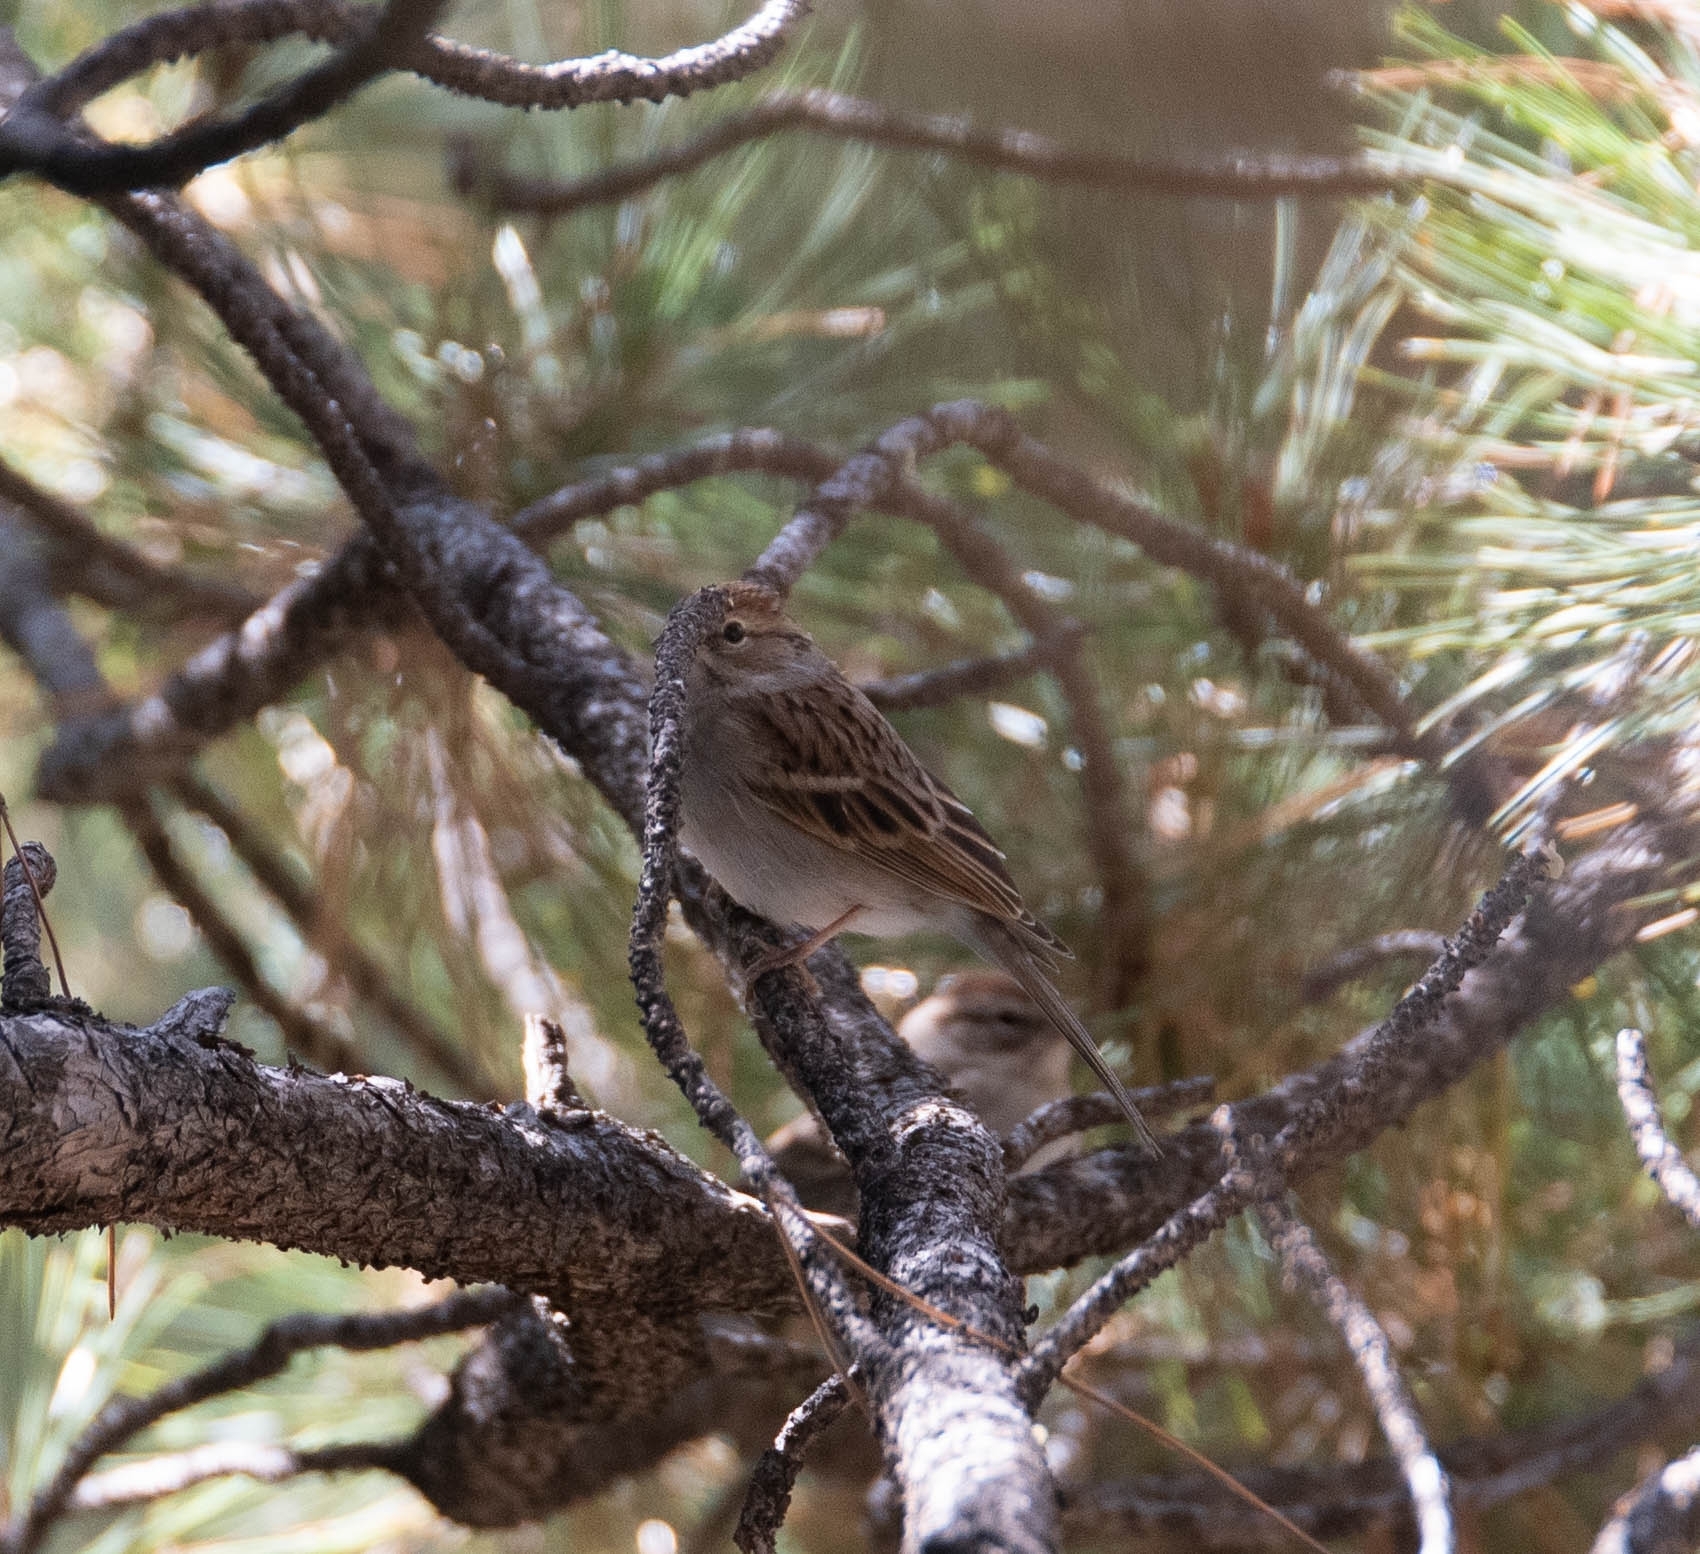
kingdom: Animalia
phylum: Chordata
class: Aves
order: Passeriformes
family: Passerellidae
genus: Spizella
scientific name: Spizella passerina
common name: Chipping sparrow
